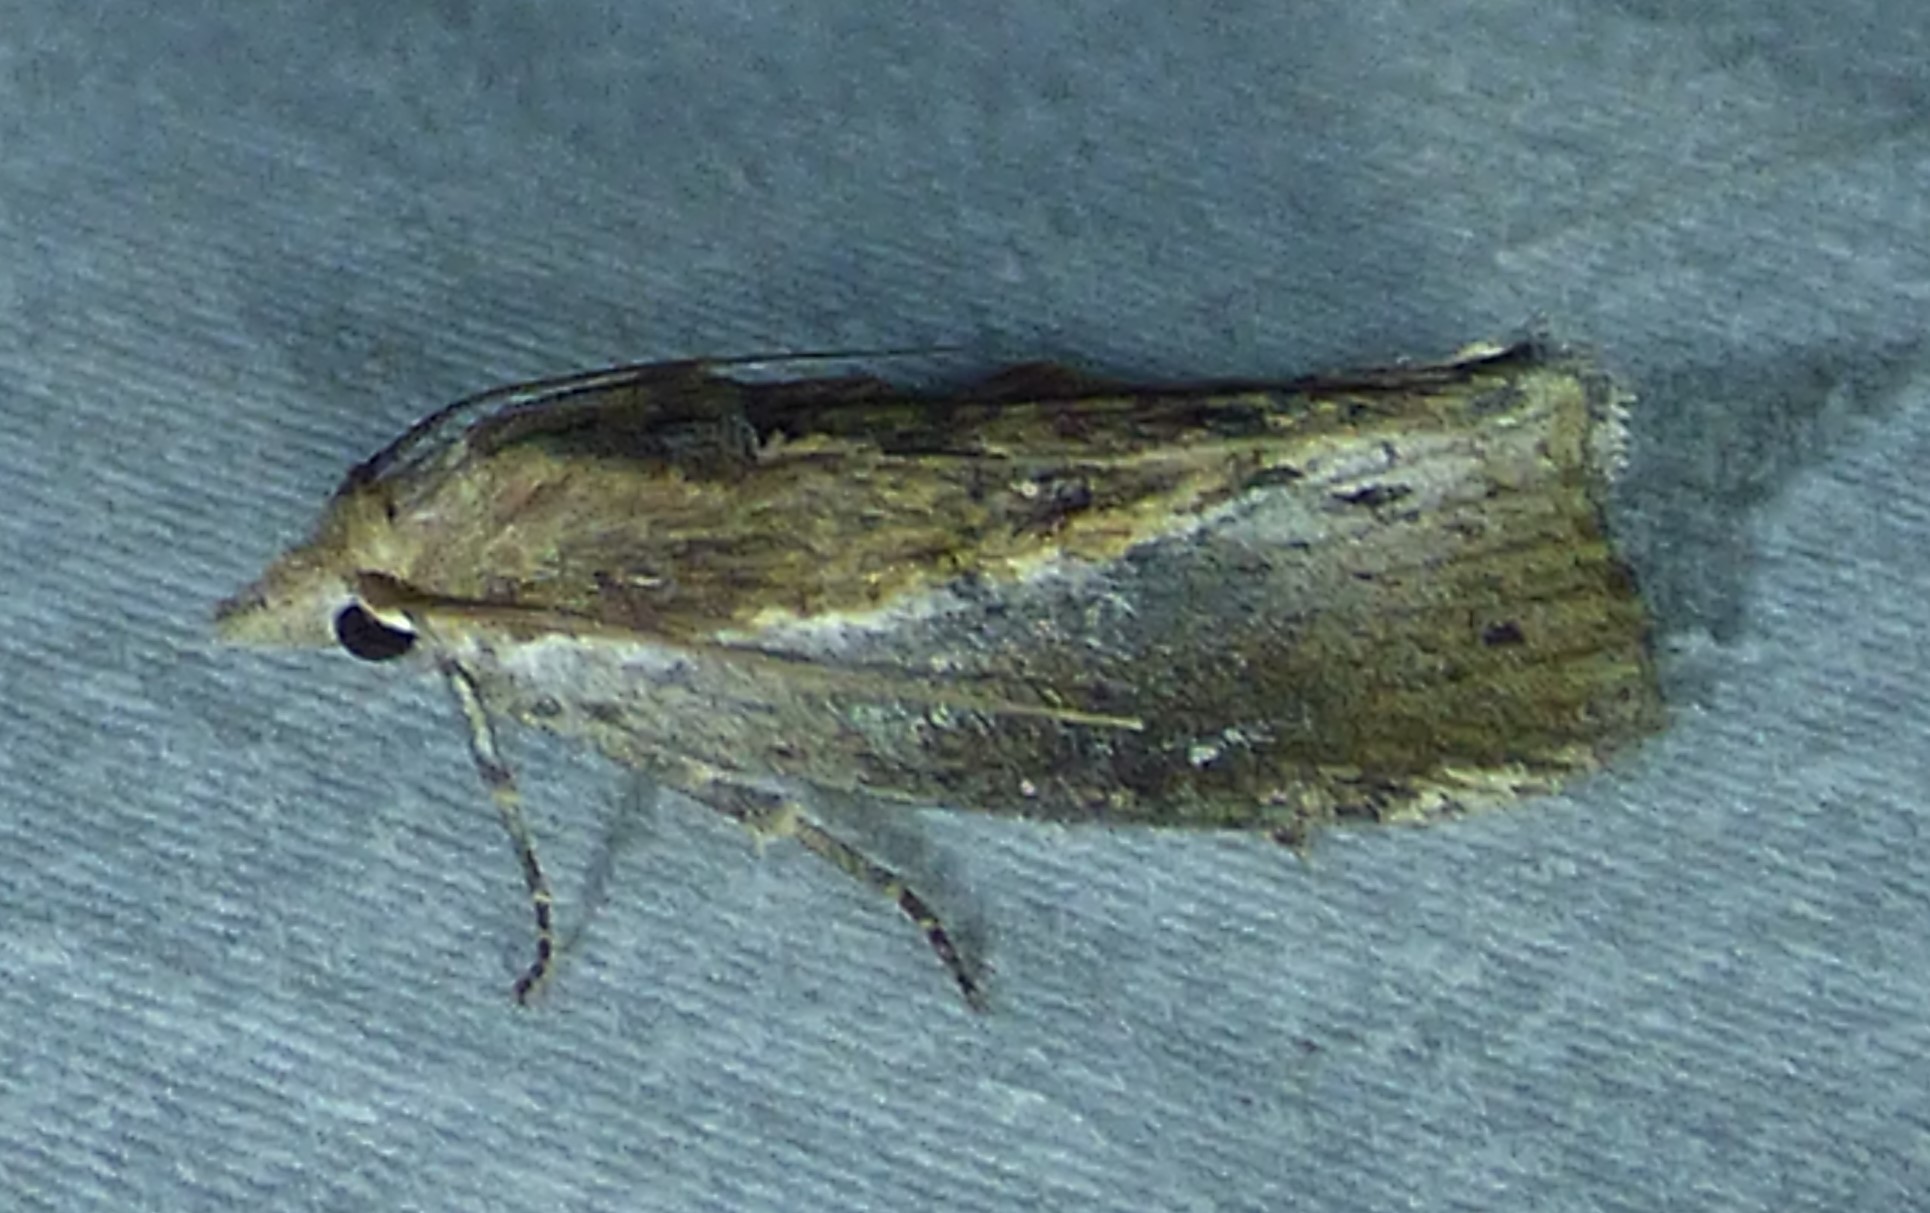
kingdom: Animalia
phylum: Arthropoda
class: Insecta
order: Lepidoptera
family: Pyralidae
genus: Galleria
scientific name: Galleria mellonella
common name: Greater wax moth
